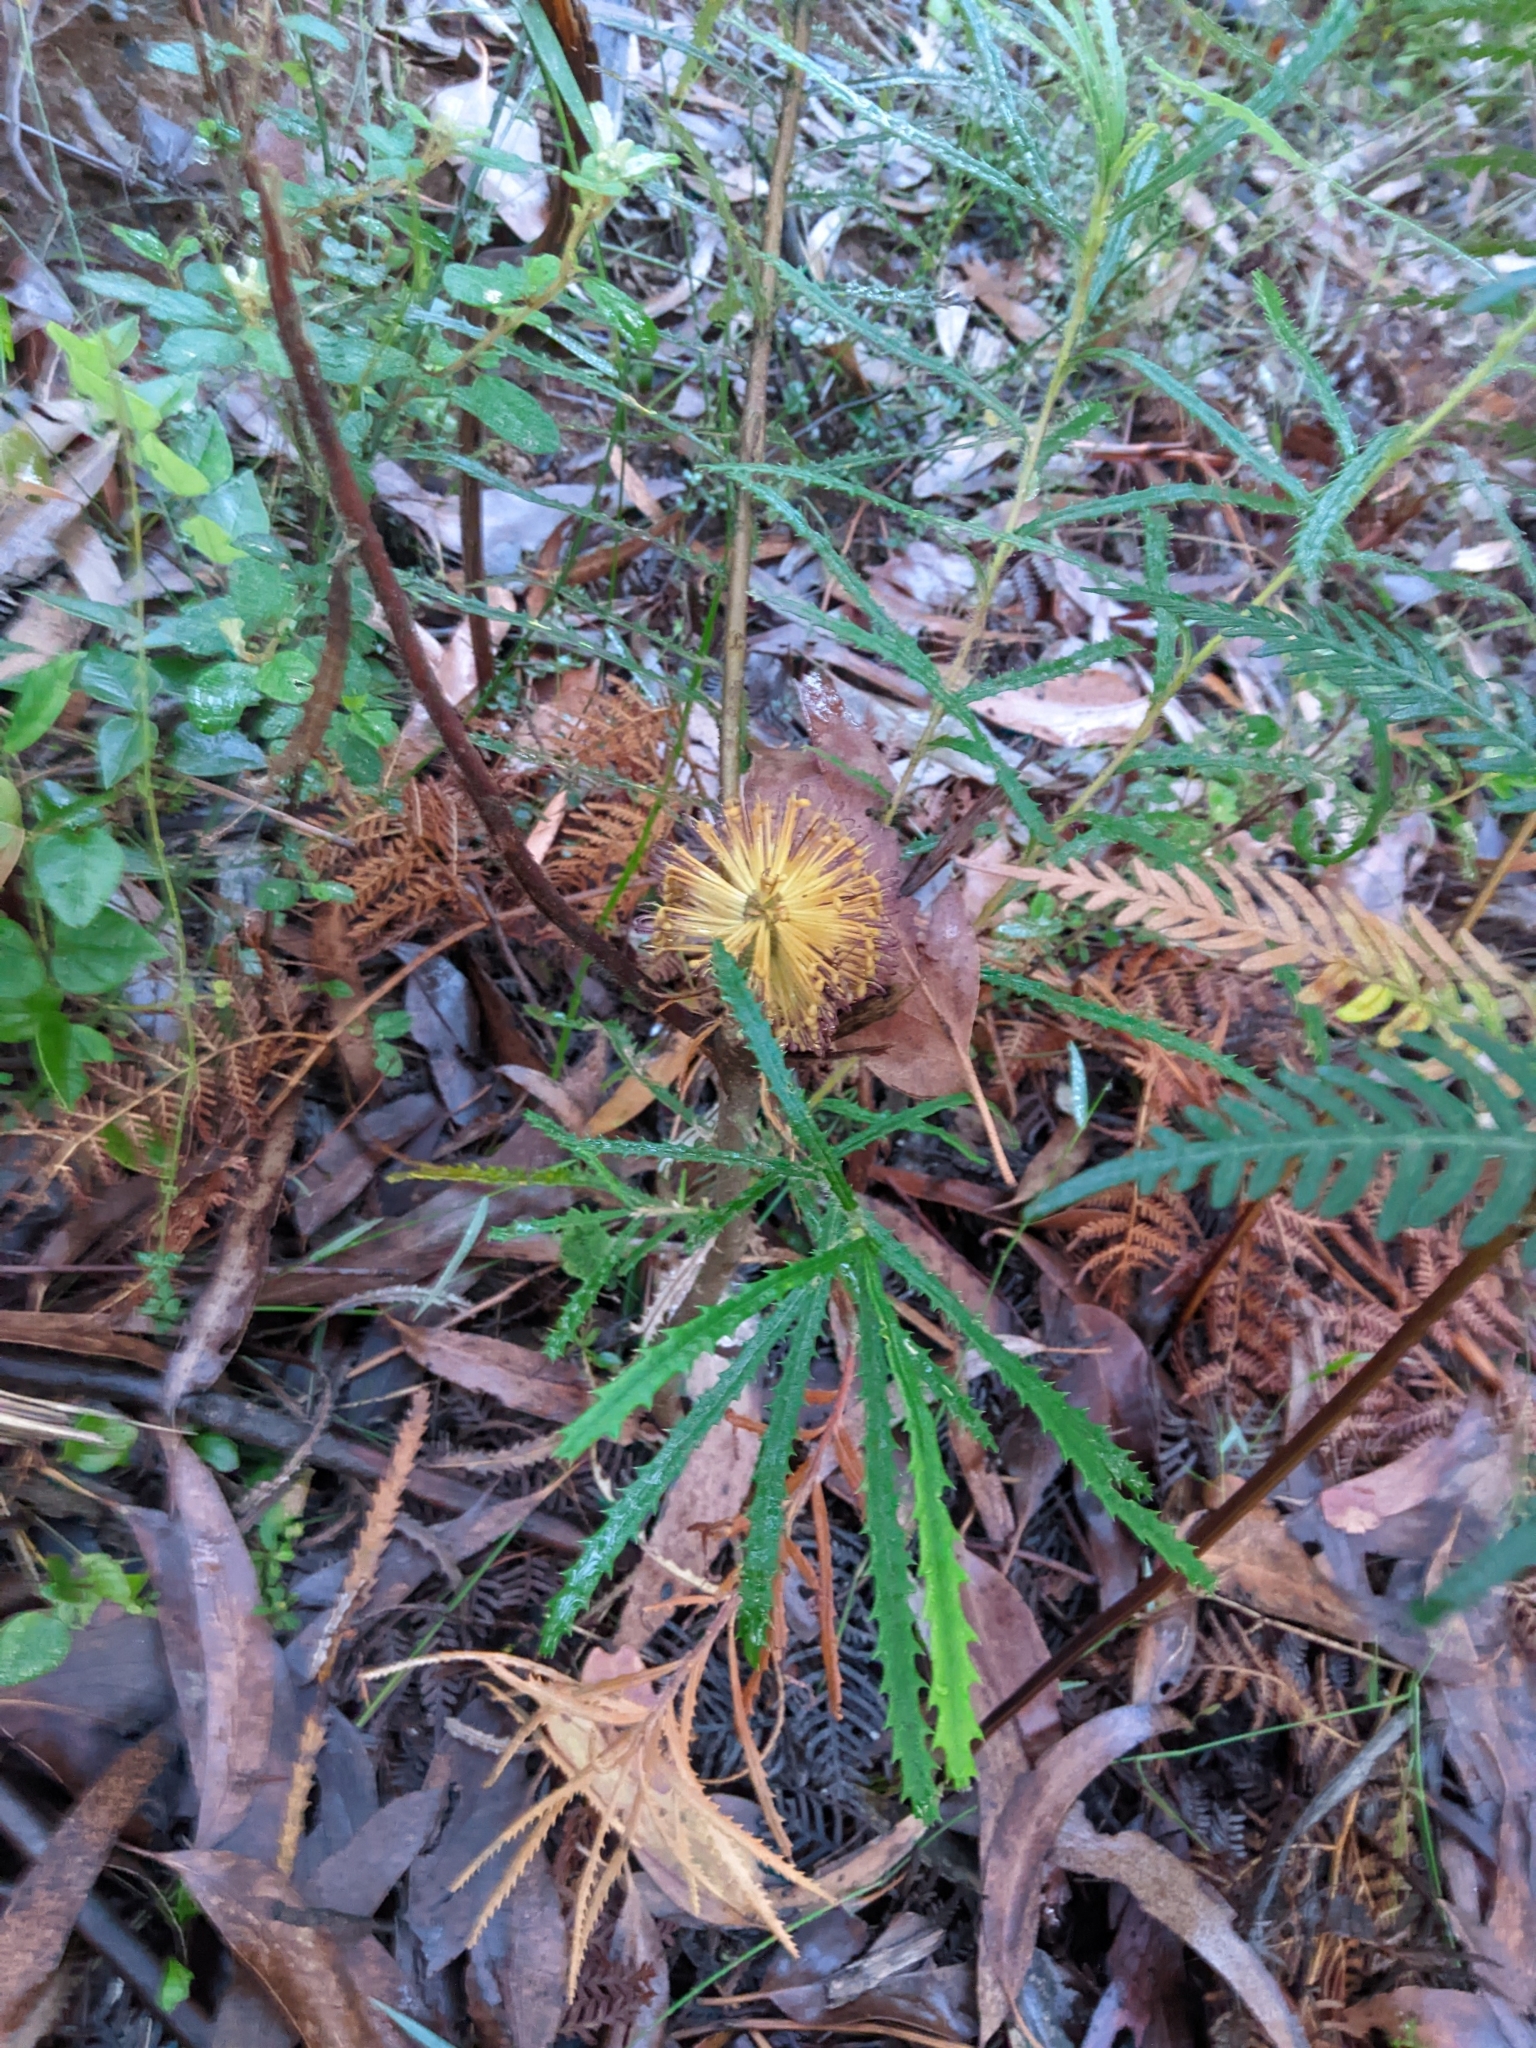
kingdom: Plantae
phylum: Tracheophyta
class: Magnoliopsida
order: Proteales
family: Proteaceae
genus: Banksia
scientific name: Banksia spinulosa
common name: Hairpin banksia
